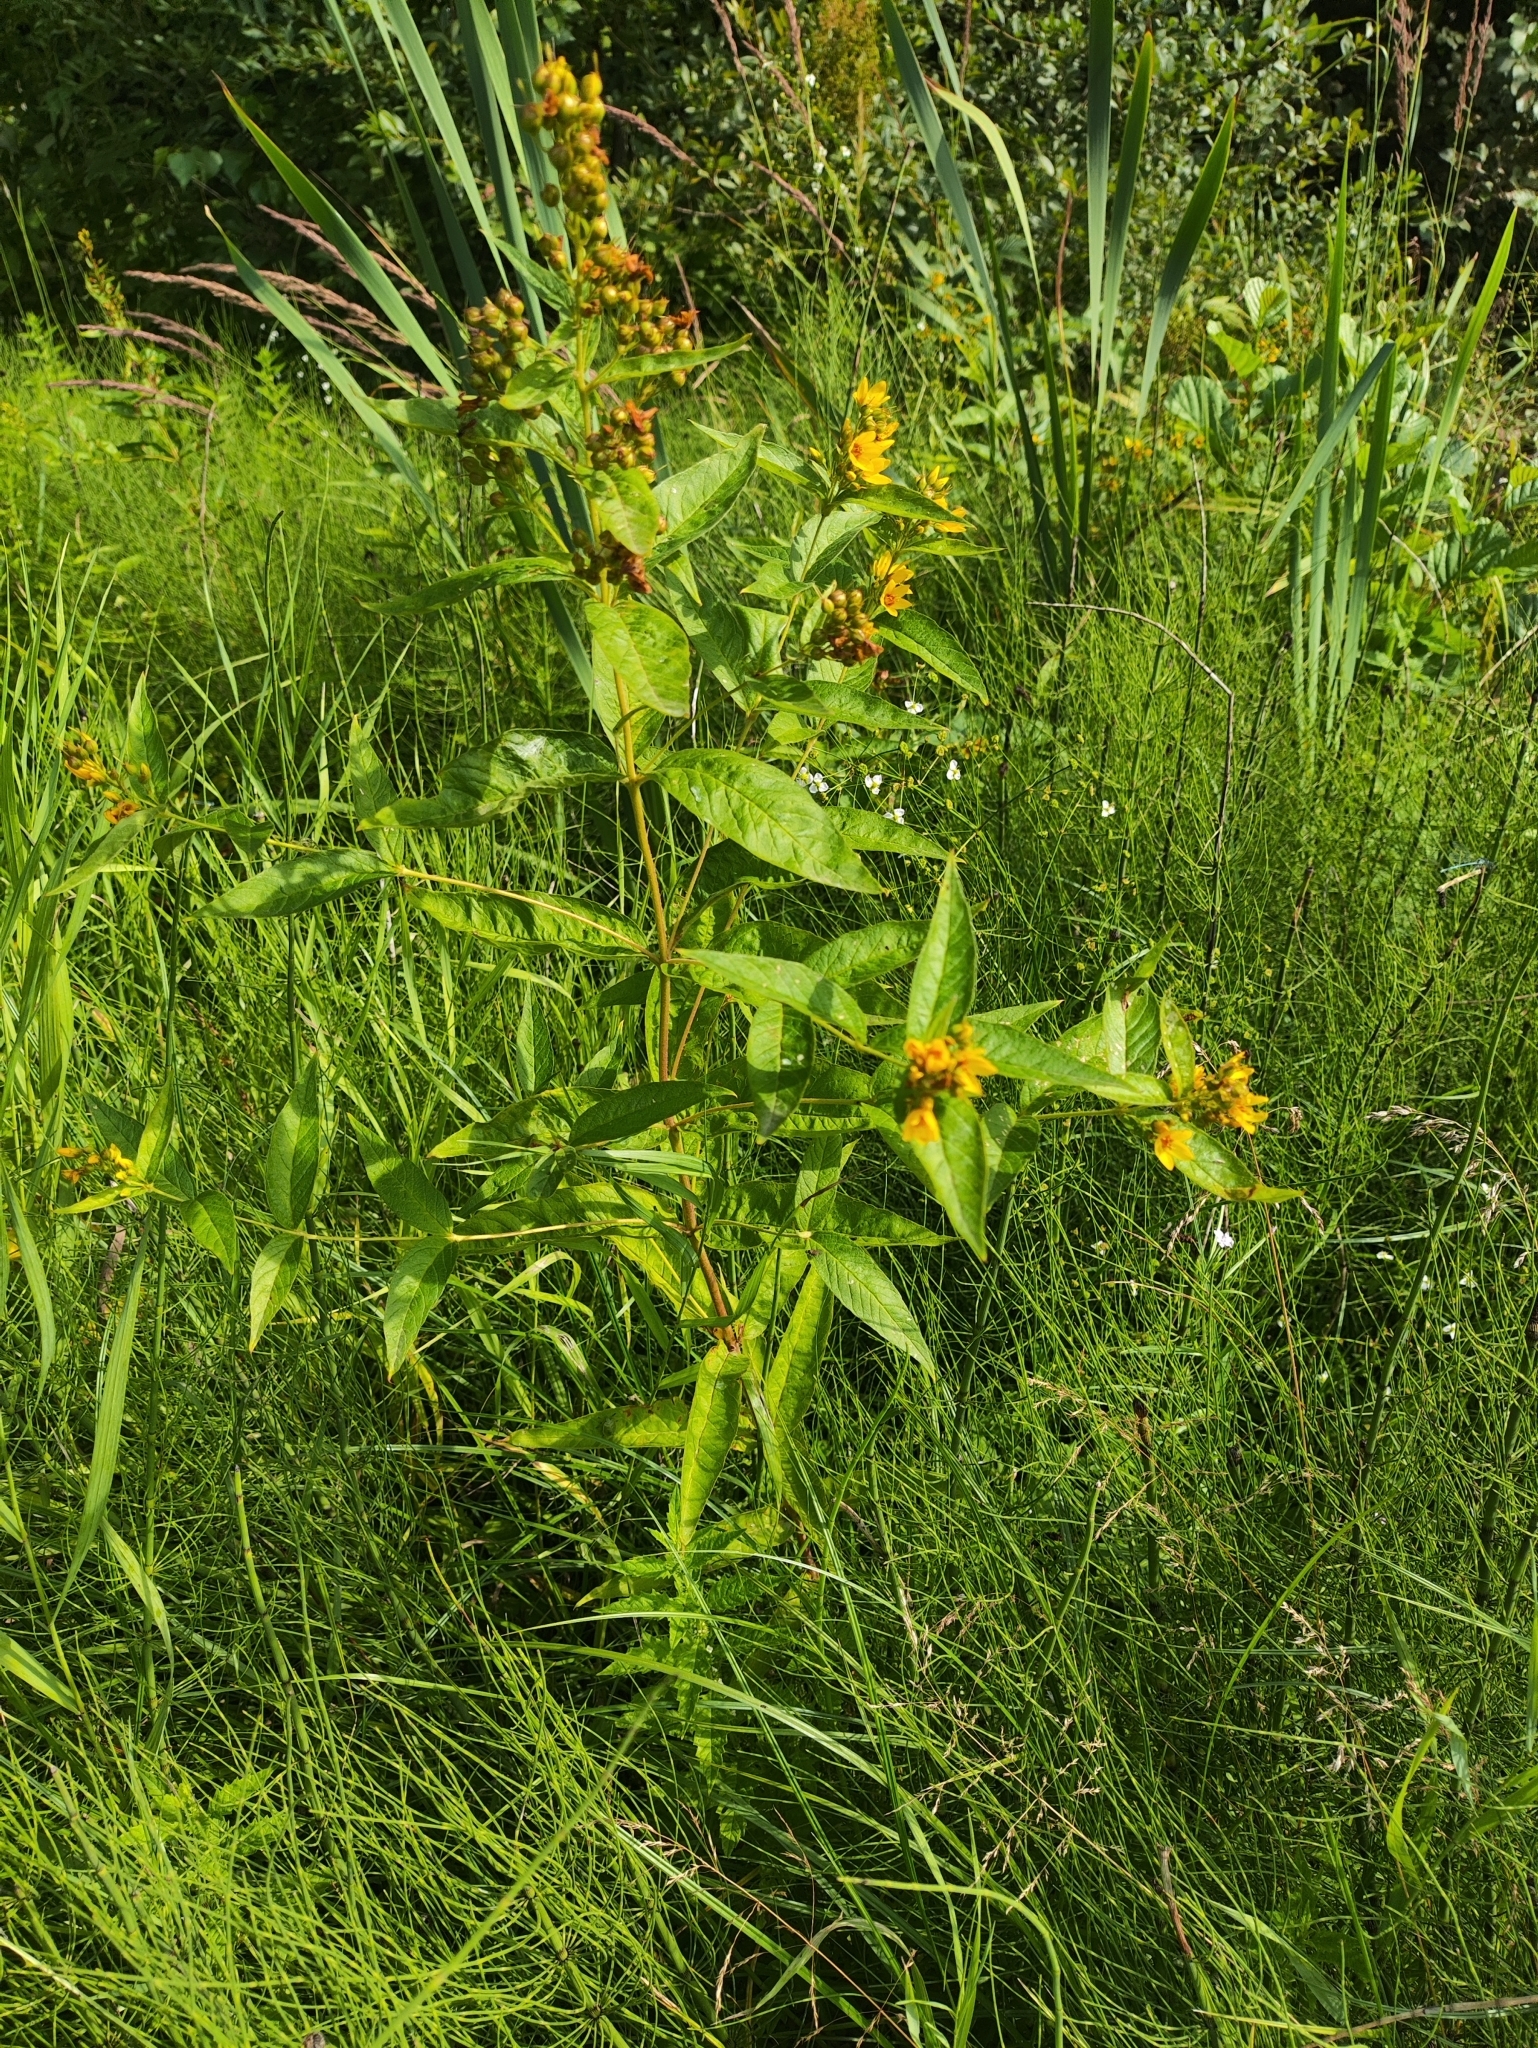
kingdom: Plantae
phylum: Tracheophyta
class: Magnoliopsida
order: Ericales
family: Primulaceae
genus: Lysimachia
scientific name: Lysimachia vulgaris
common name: Yellow loosestrife
